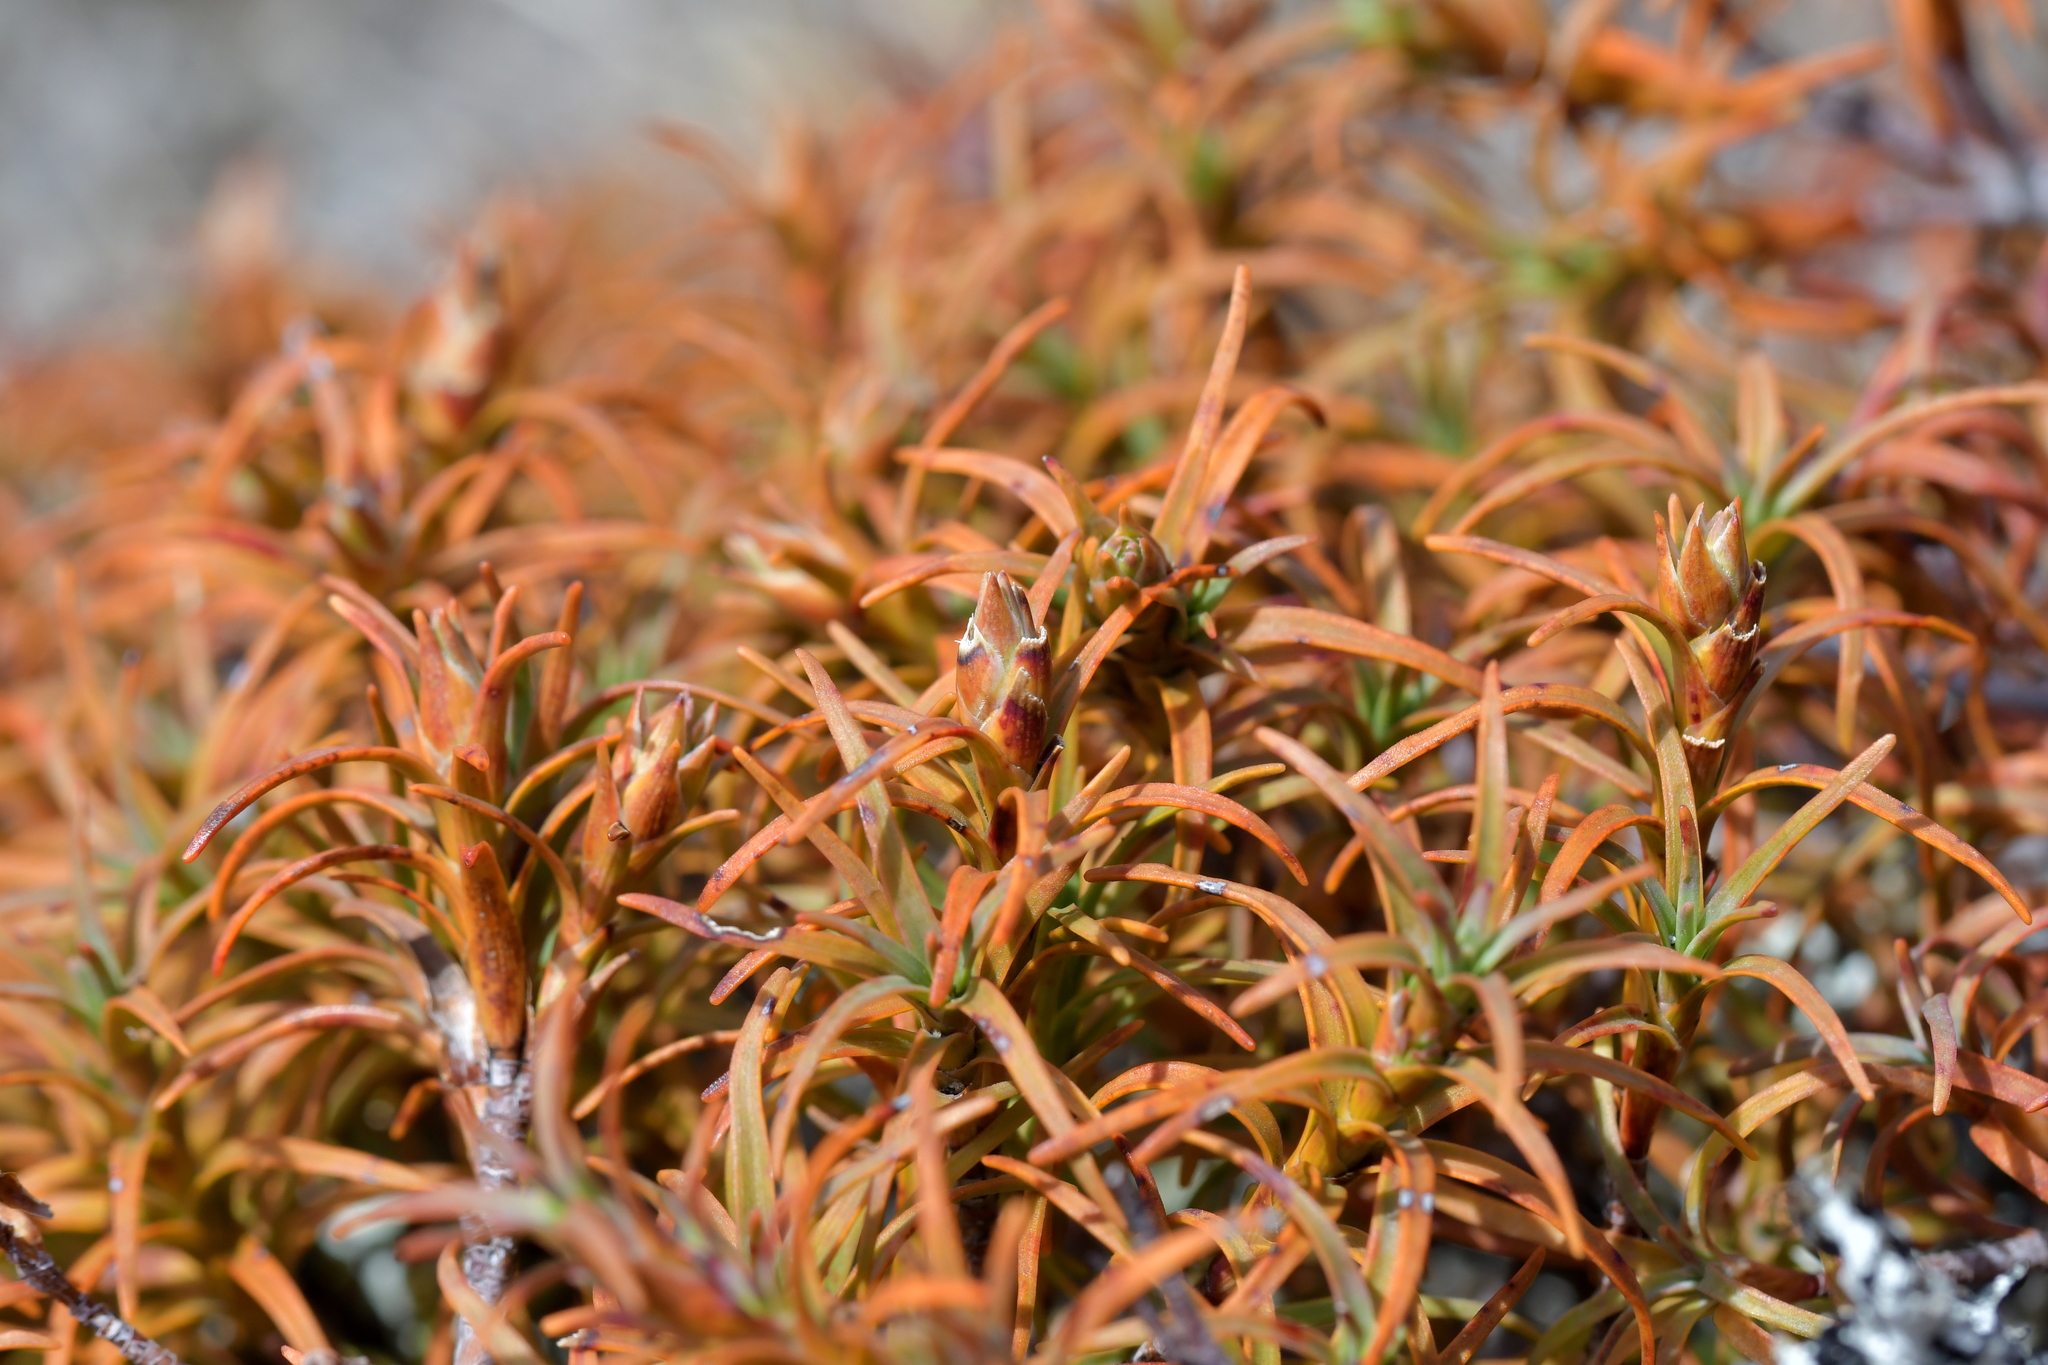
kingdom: Plantae
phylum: Tracheophyta
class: Magnoliopsida
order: Ericales
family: Ericaceae
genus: Dracophyllum
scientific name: Dracophyllum recurvum
